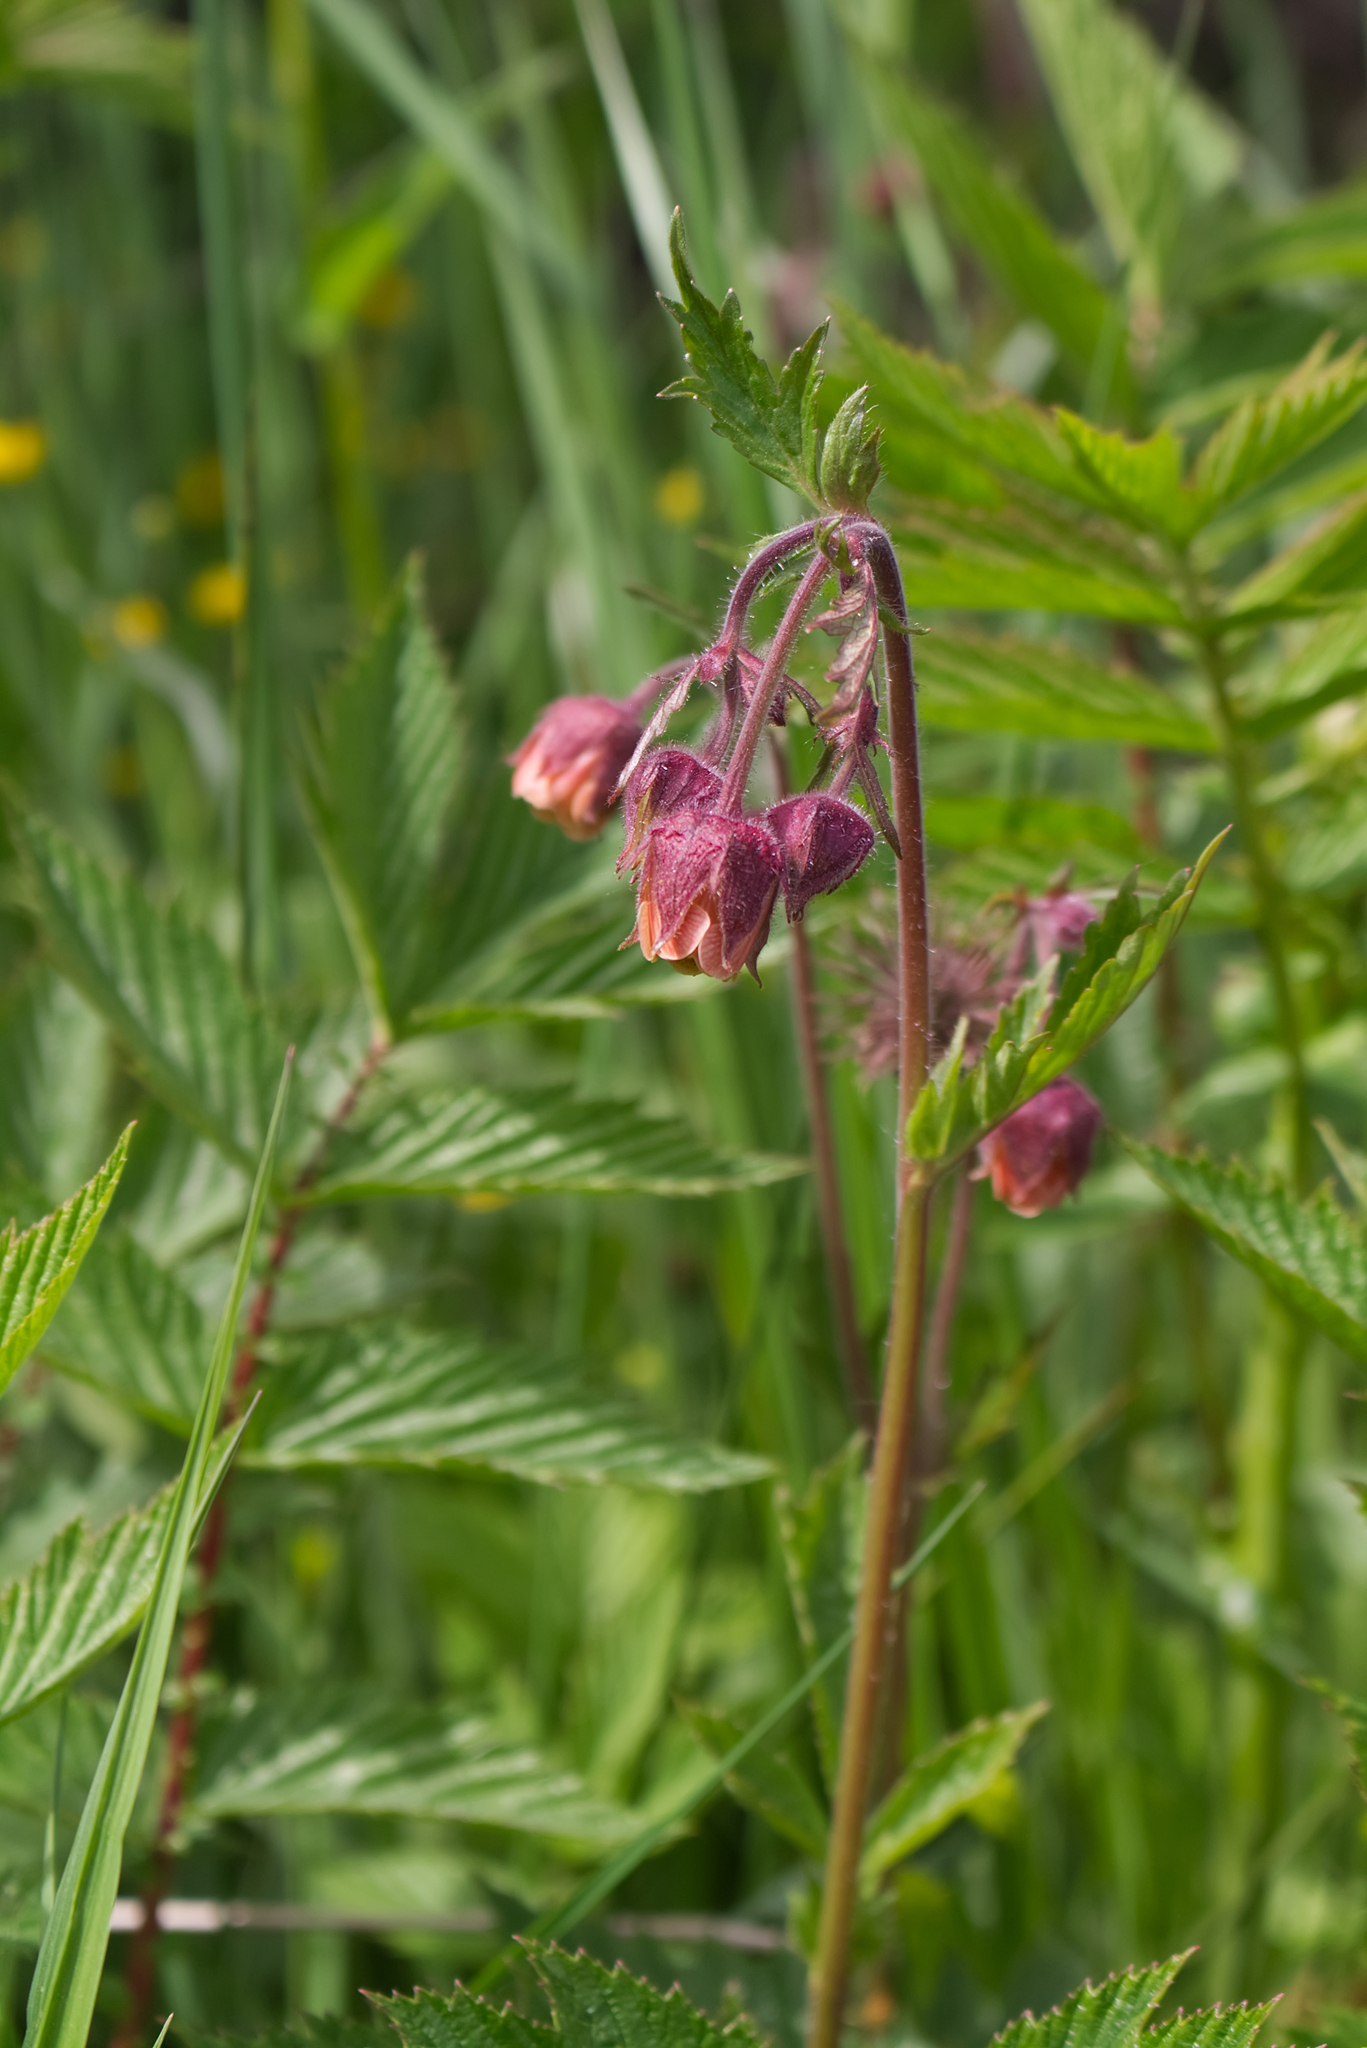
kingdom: Plantae
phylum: Tracheophyta
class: Magnoliopsida
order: Rosales
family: Rosaceae
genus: Geum
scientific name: Geum rivale
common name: Water avens
